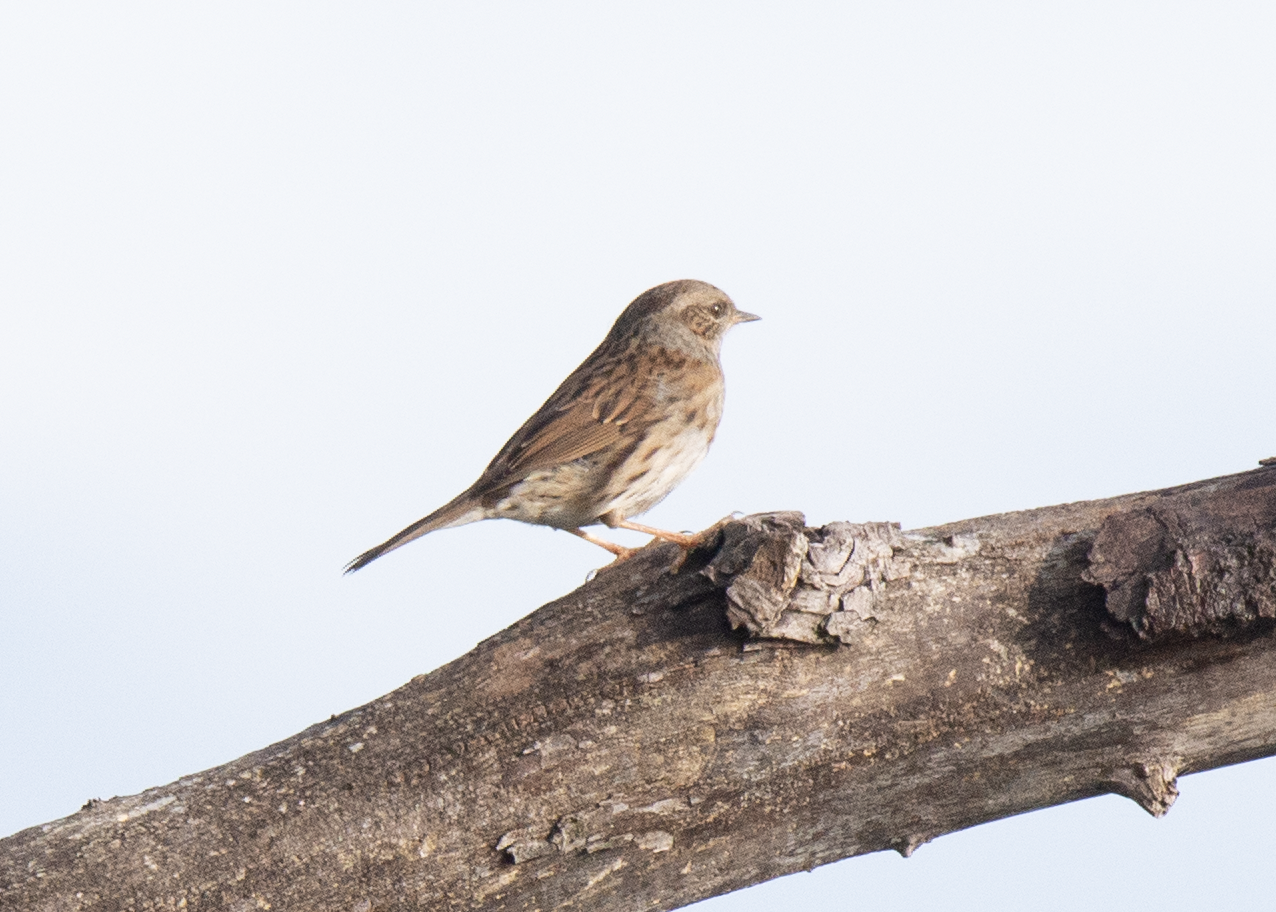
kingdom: Animalia
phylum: Chordata
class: Aves
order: Passeriformes
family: Prunellidae
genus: Prunella
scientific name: Prunella modularis
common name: Dunnock
